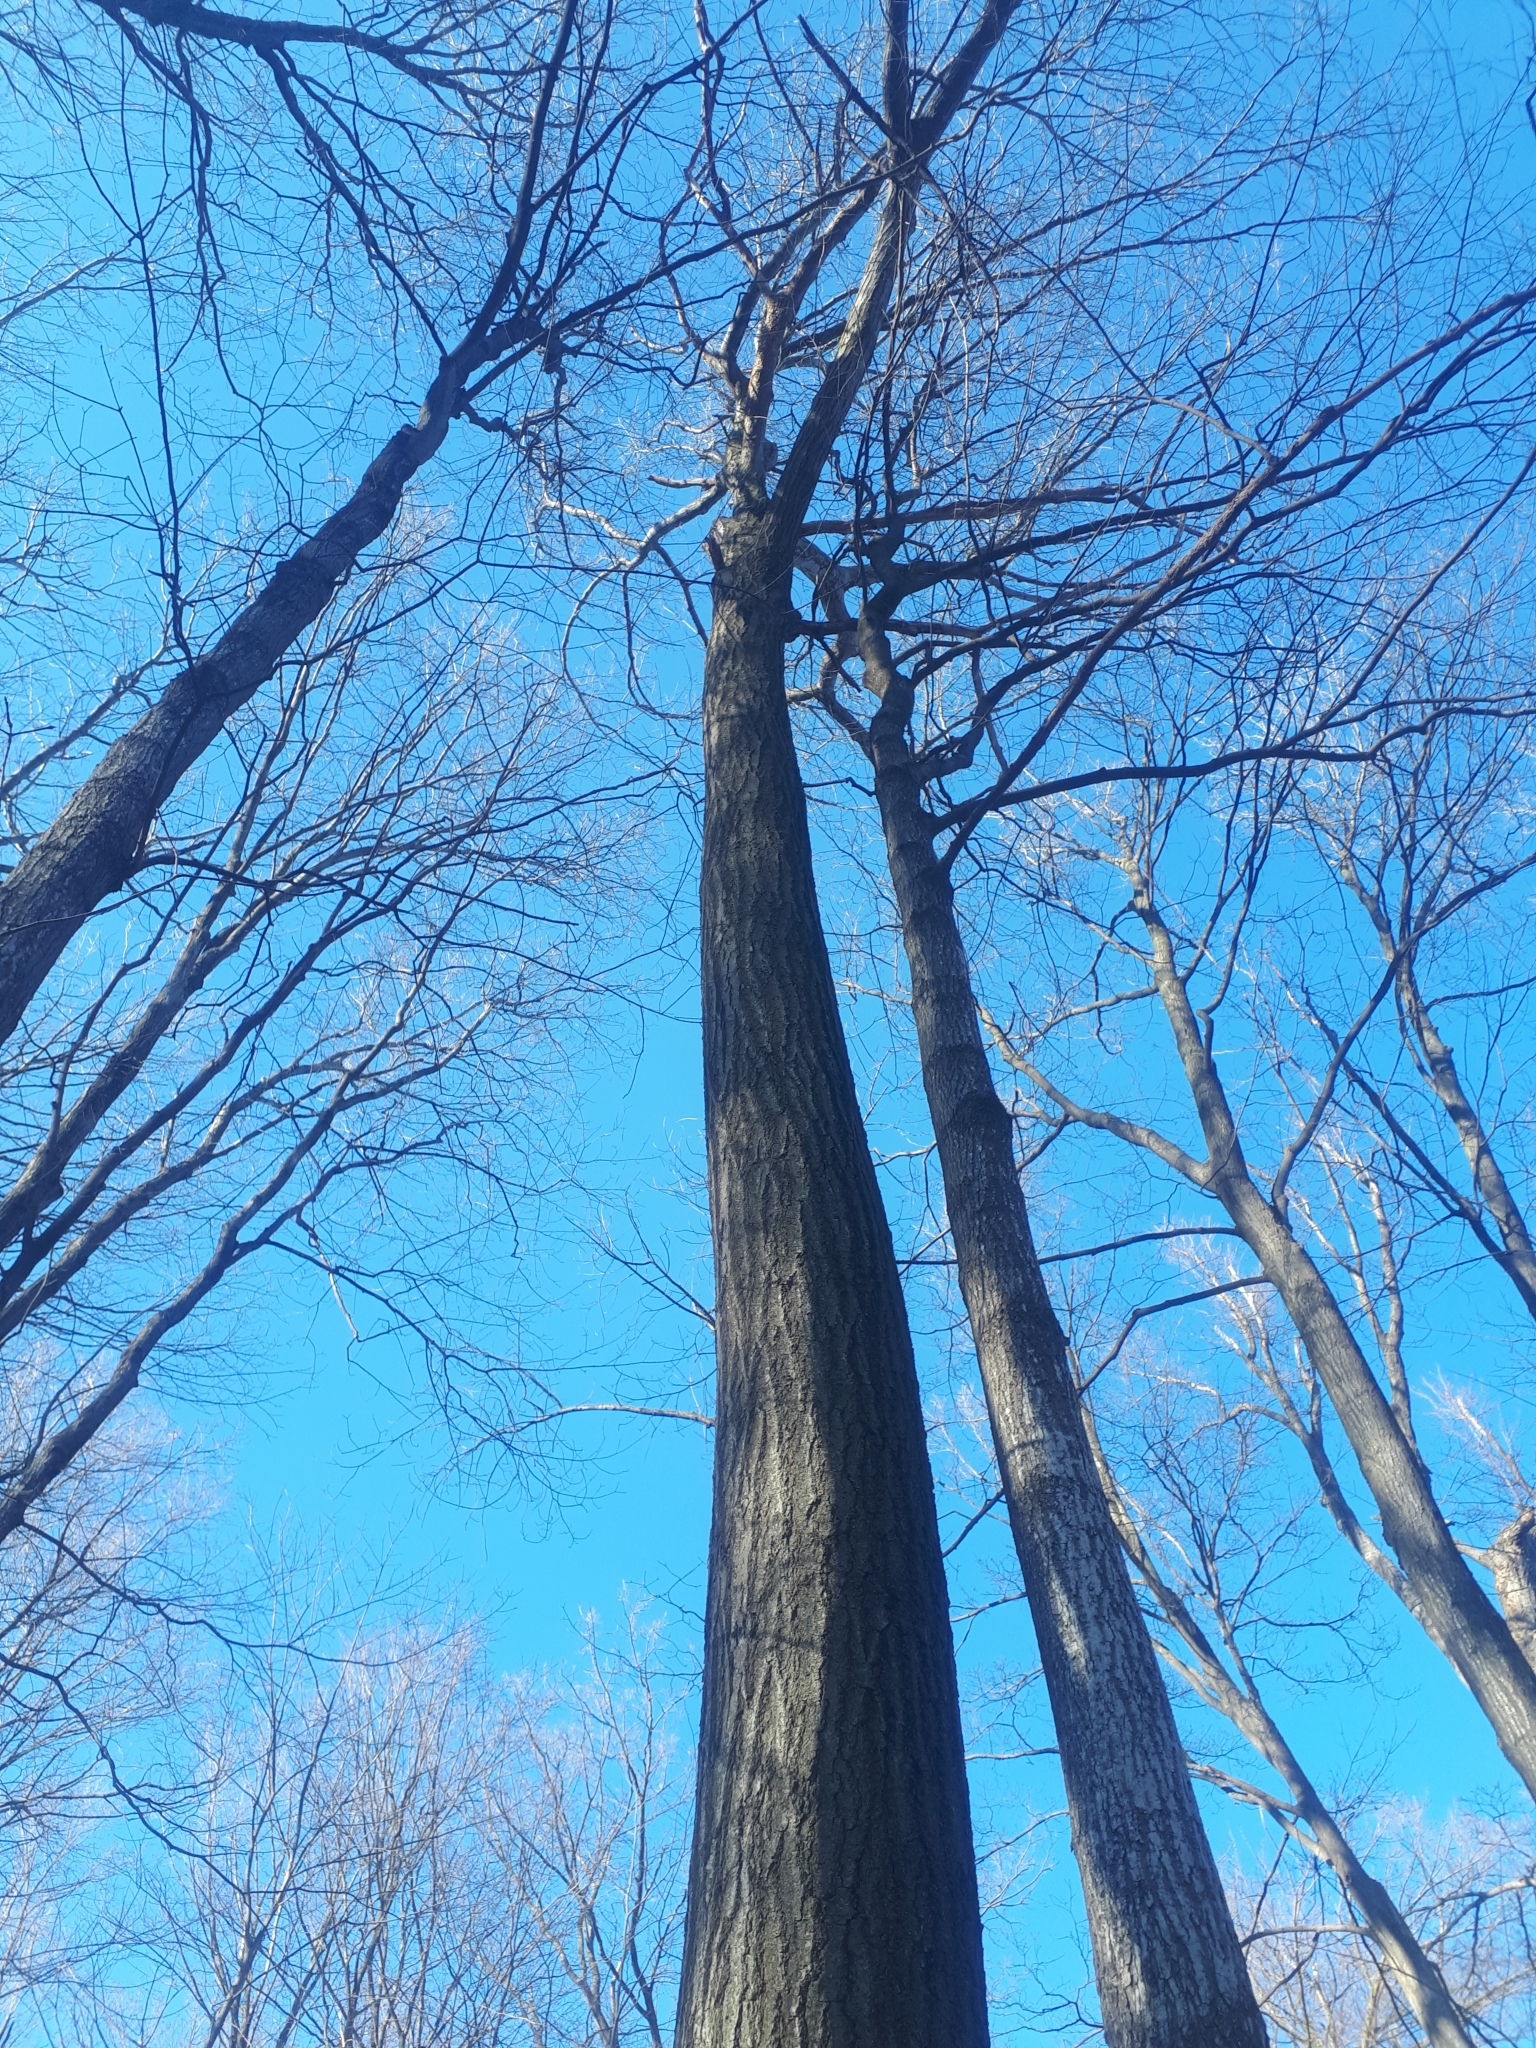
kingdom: Plantae
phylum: Tracheophyta
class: Magnoliopsida
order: Fagales
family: Fagaceae
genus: Quercus
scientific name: Quercus rubra
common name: Red oak
